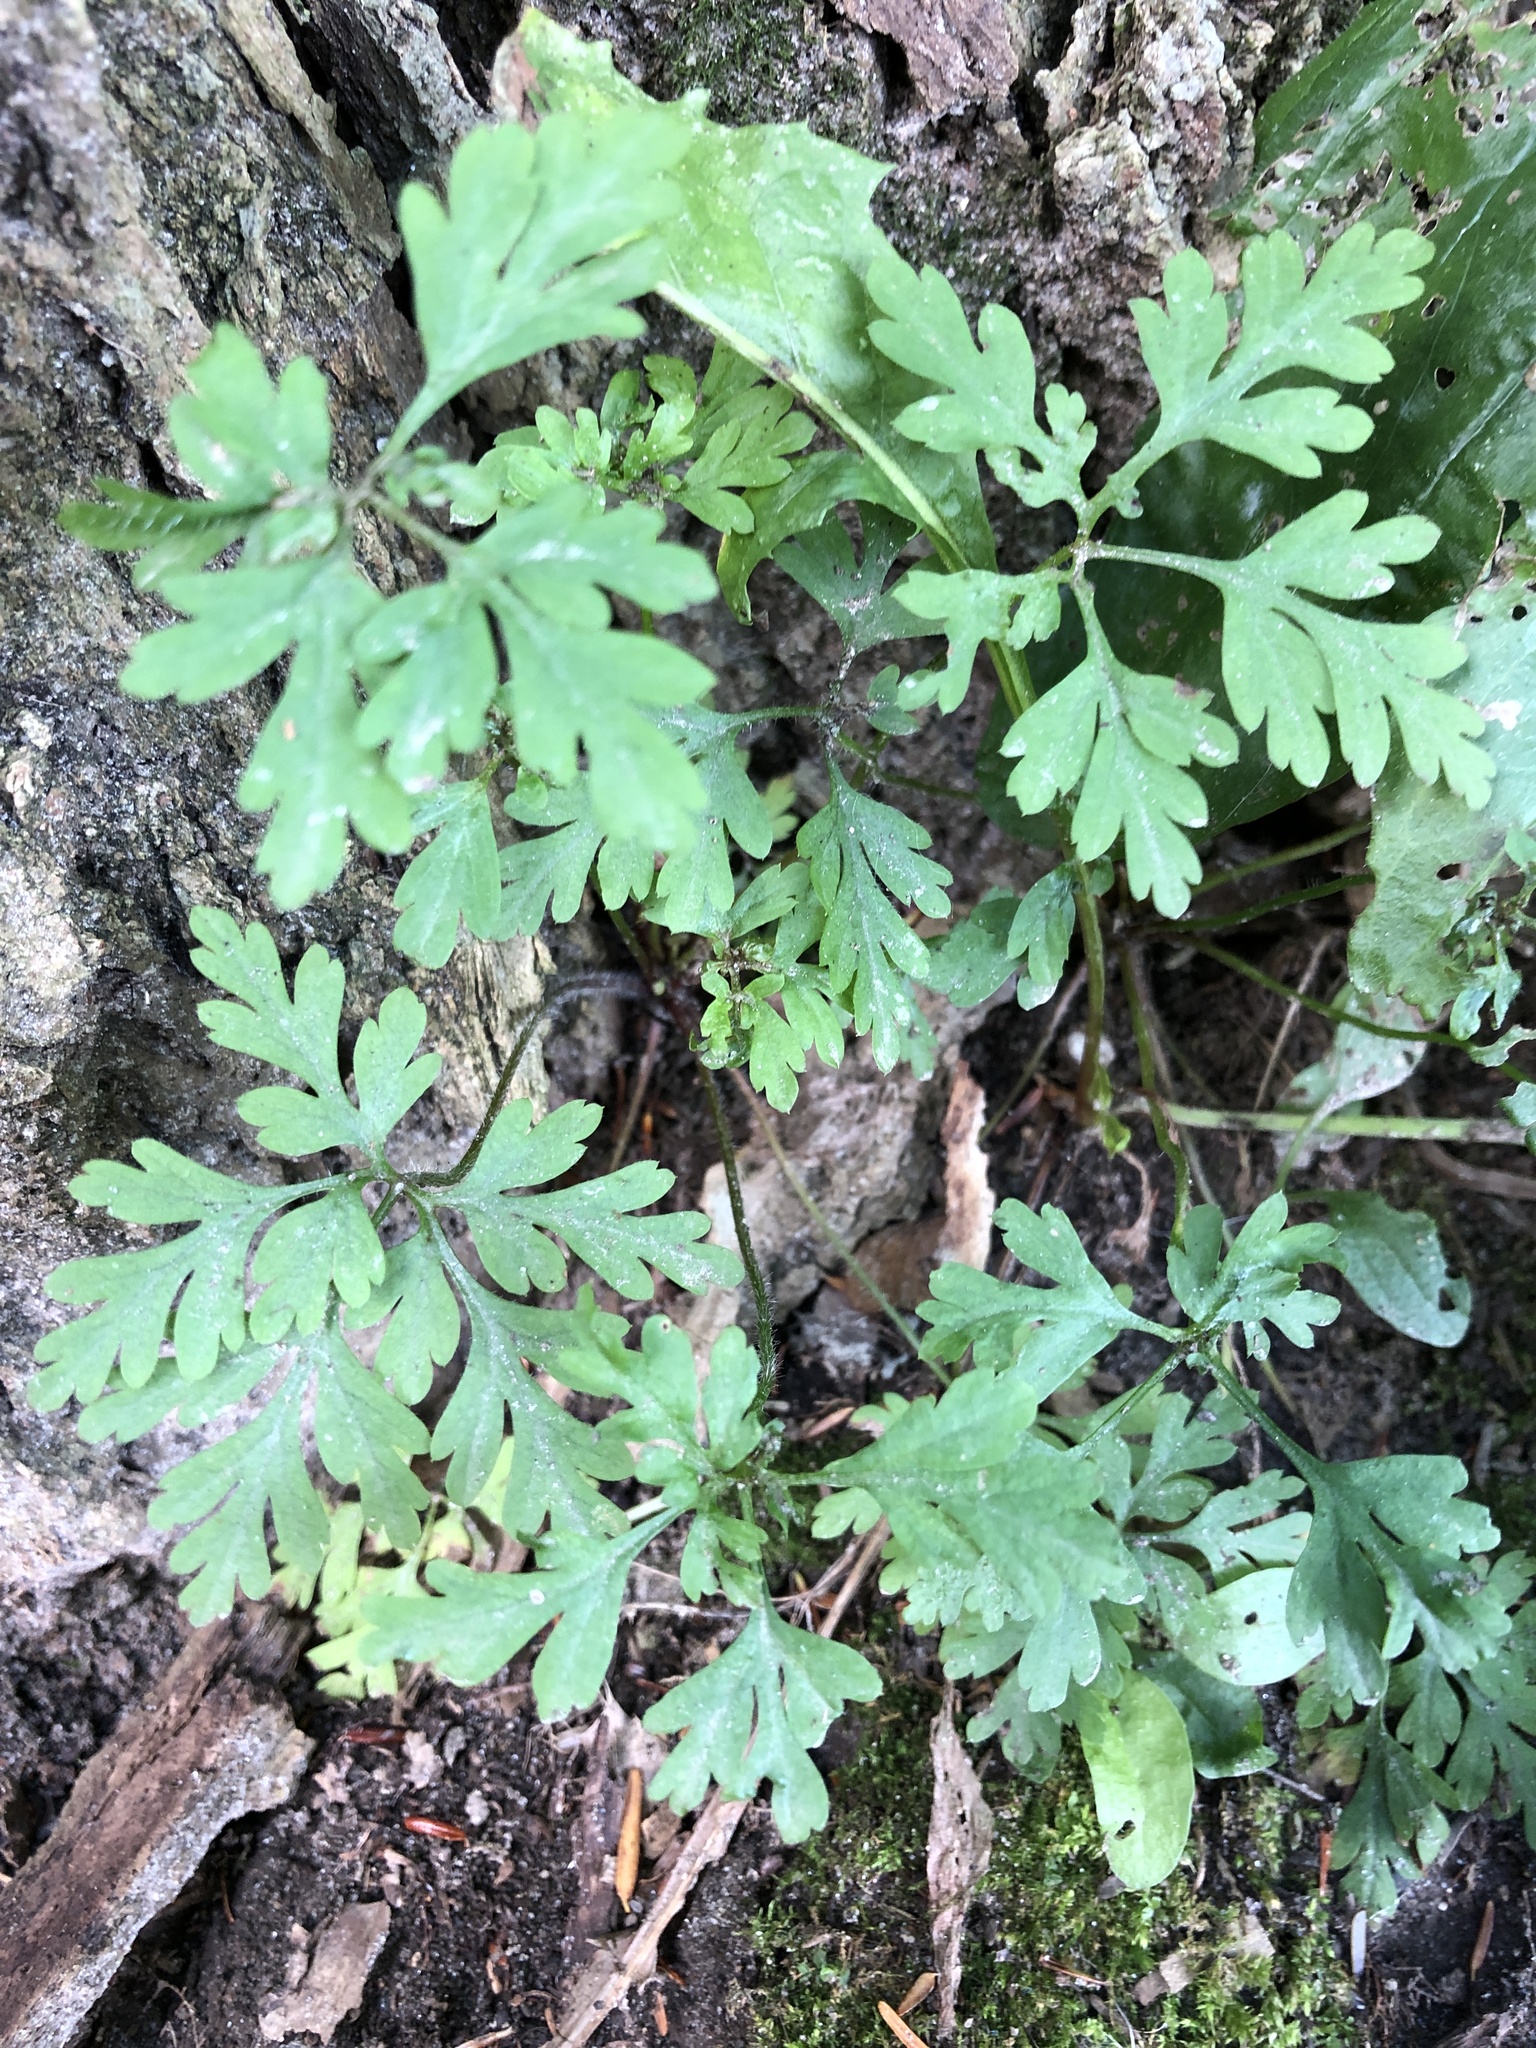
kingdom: Plantae
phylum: Tracheophyta
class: Magnoliopsida
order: Geraniales
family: Geraniaceae
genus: Geranium
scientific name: Geranium robertianum
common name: Herb-robert
